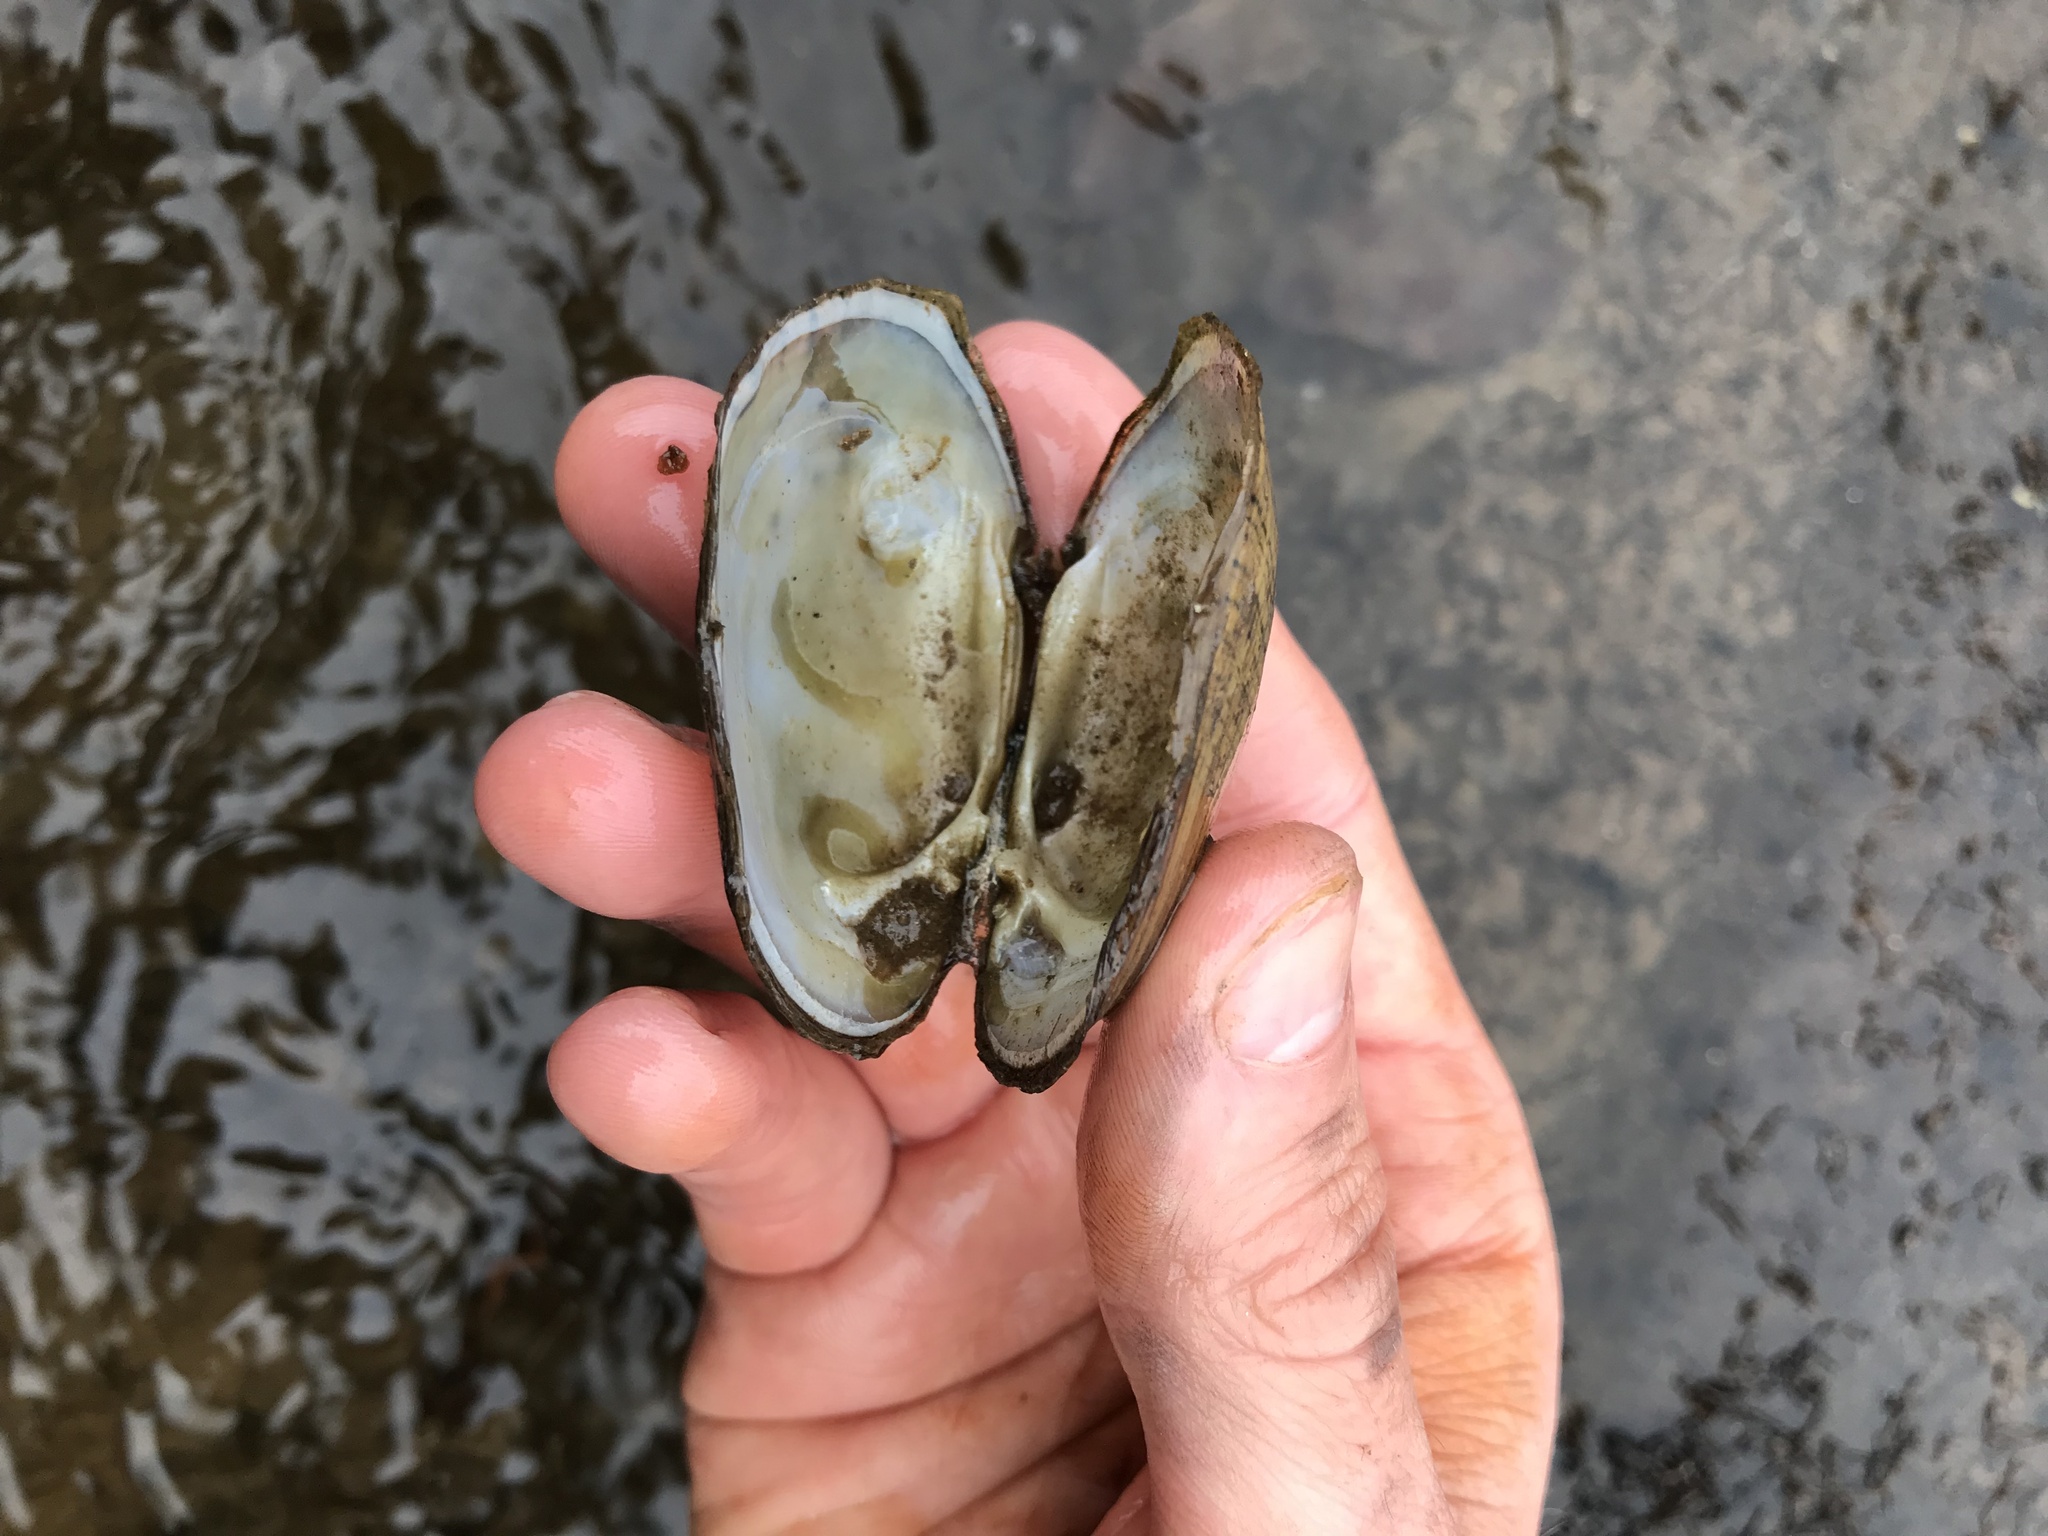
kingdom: Animalia
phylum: Mollusca
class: Bivalvia
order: Unionida
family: Unionidae
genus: Lampsilis
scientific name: Lampsilis fasciola
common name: Wavyrayed lampmussel
